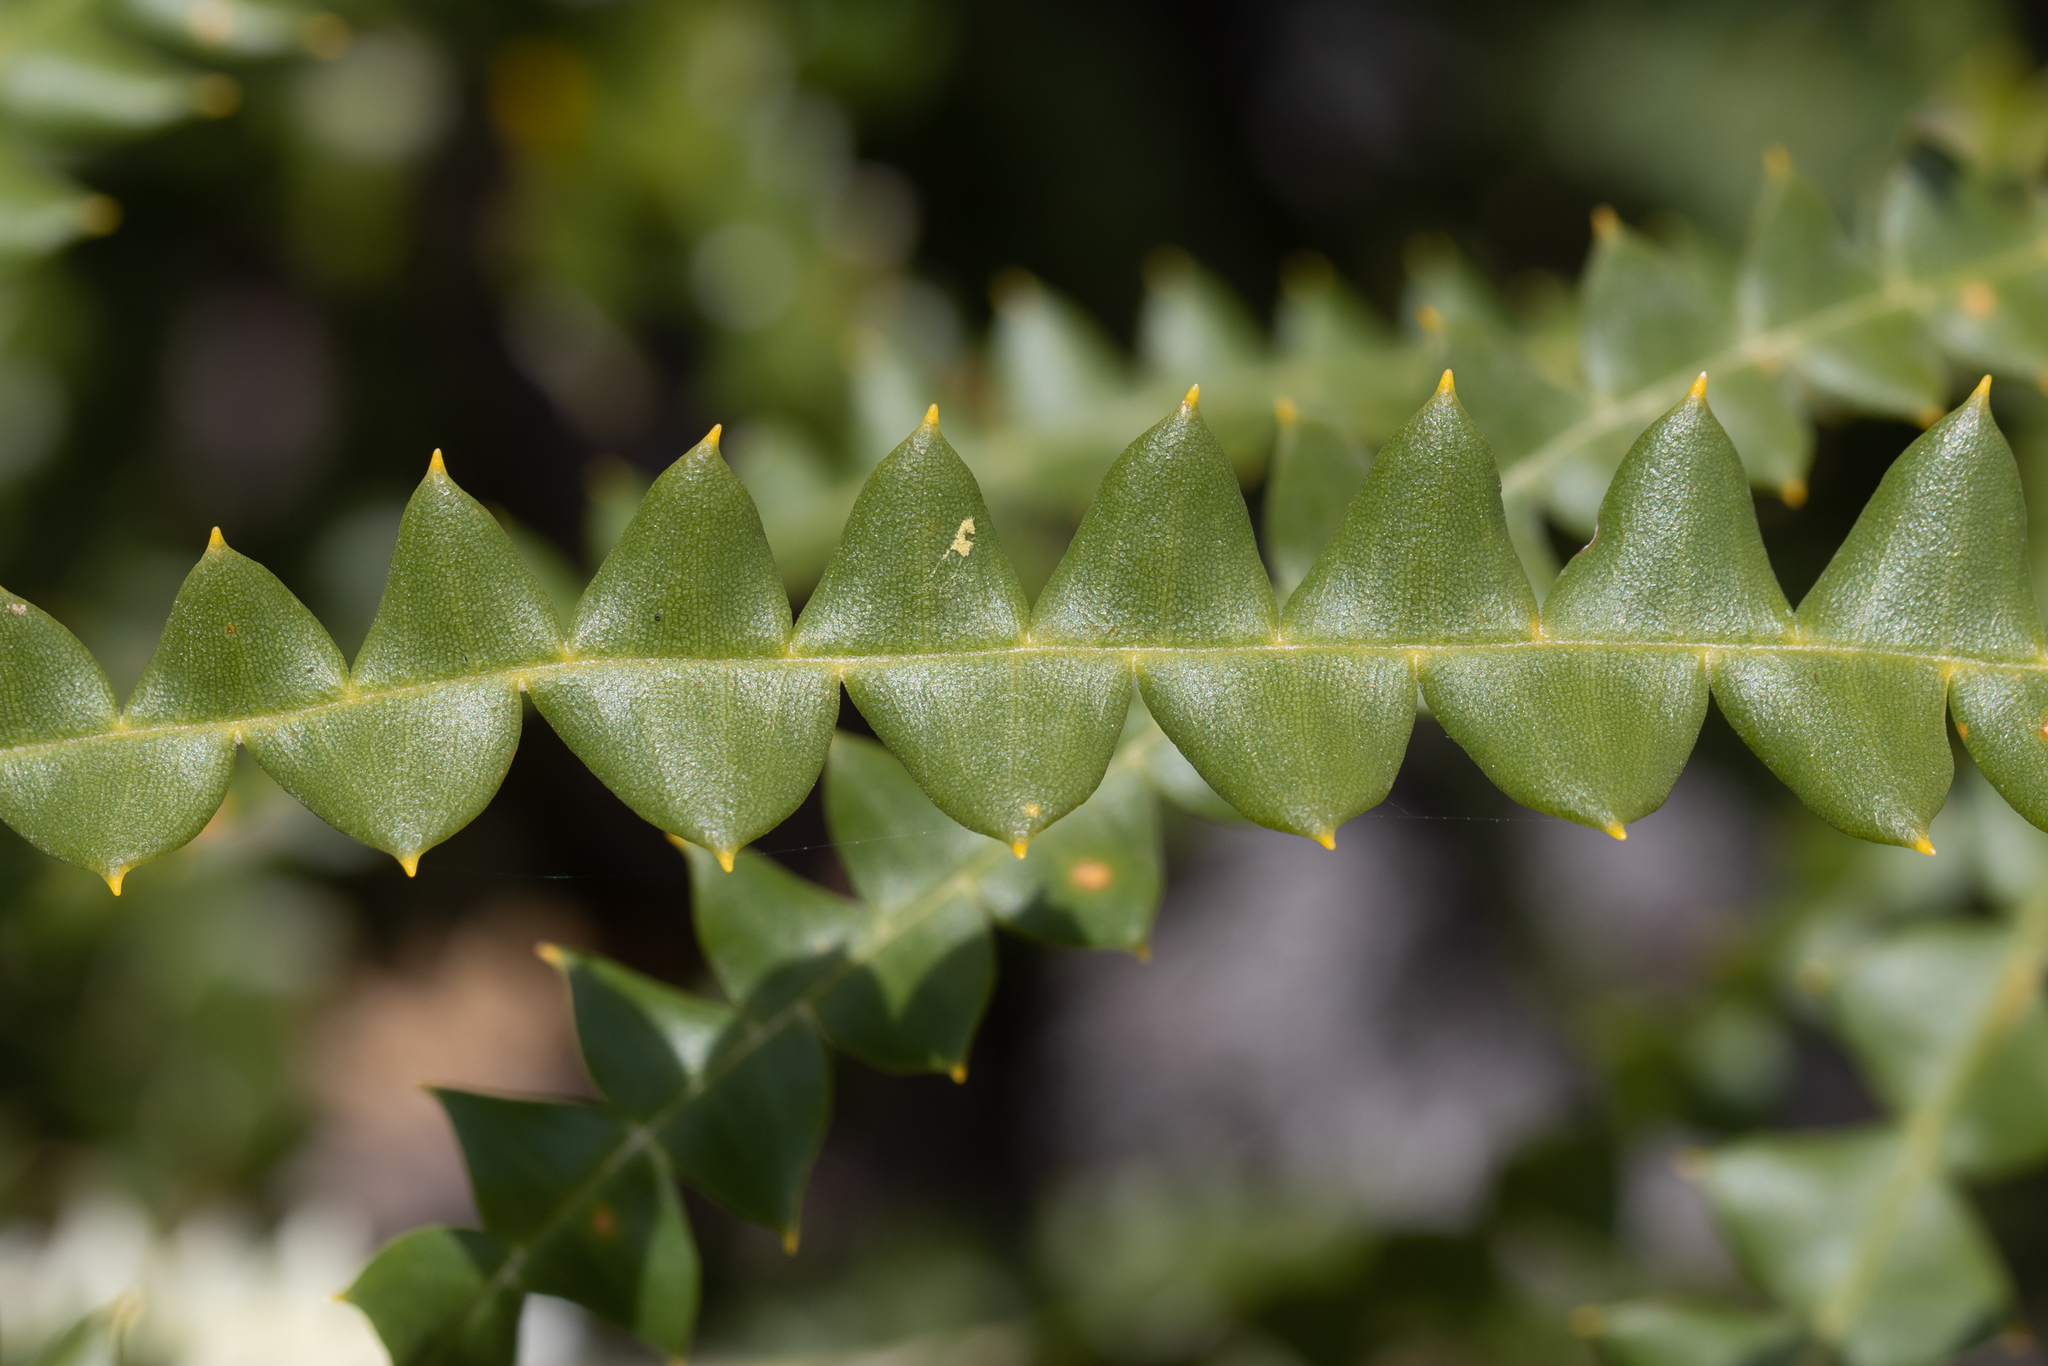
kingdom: Plantae
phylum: Tracheophyta
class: Magnoliopsida
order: Proteales
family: Proteaceae
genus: Banksia
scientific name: Banksia speciosa
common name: Showy banksia
